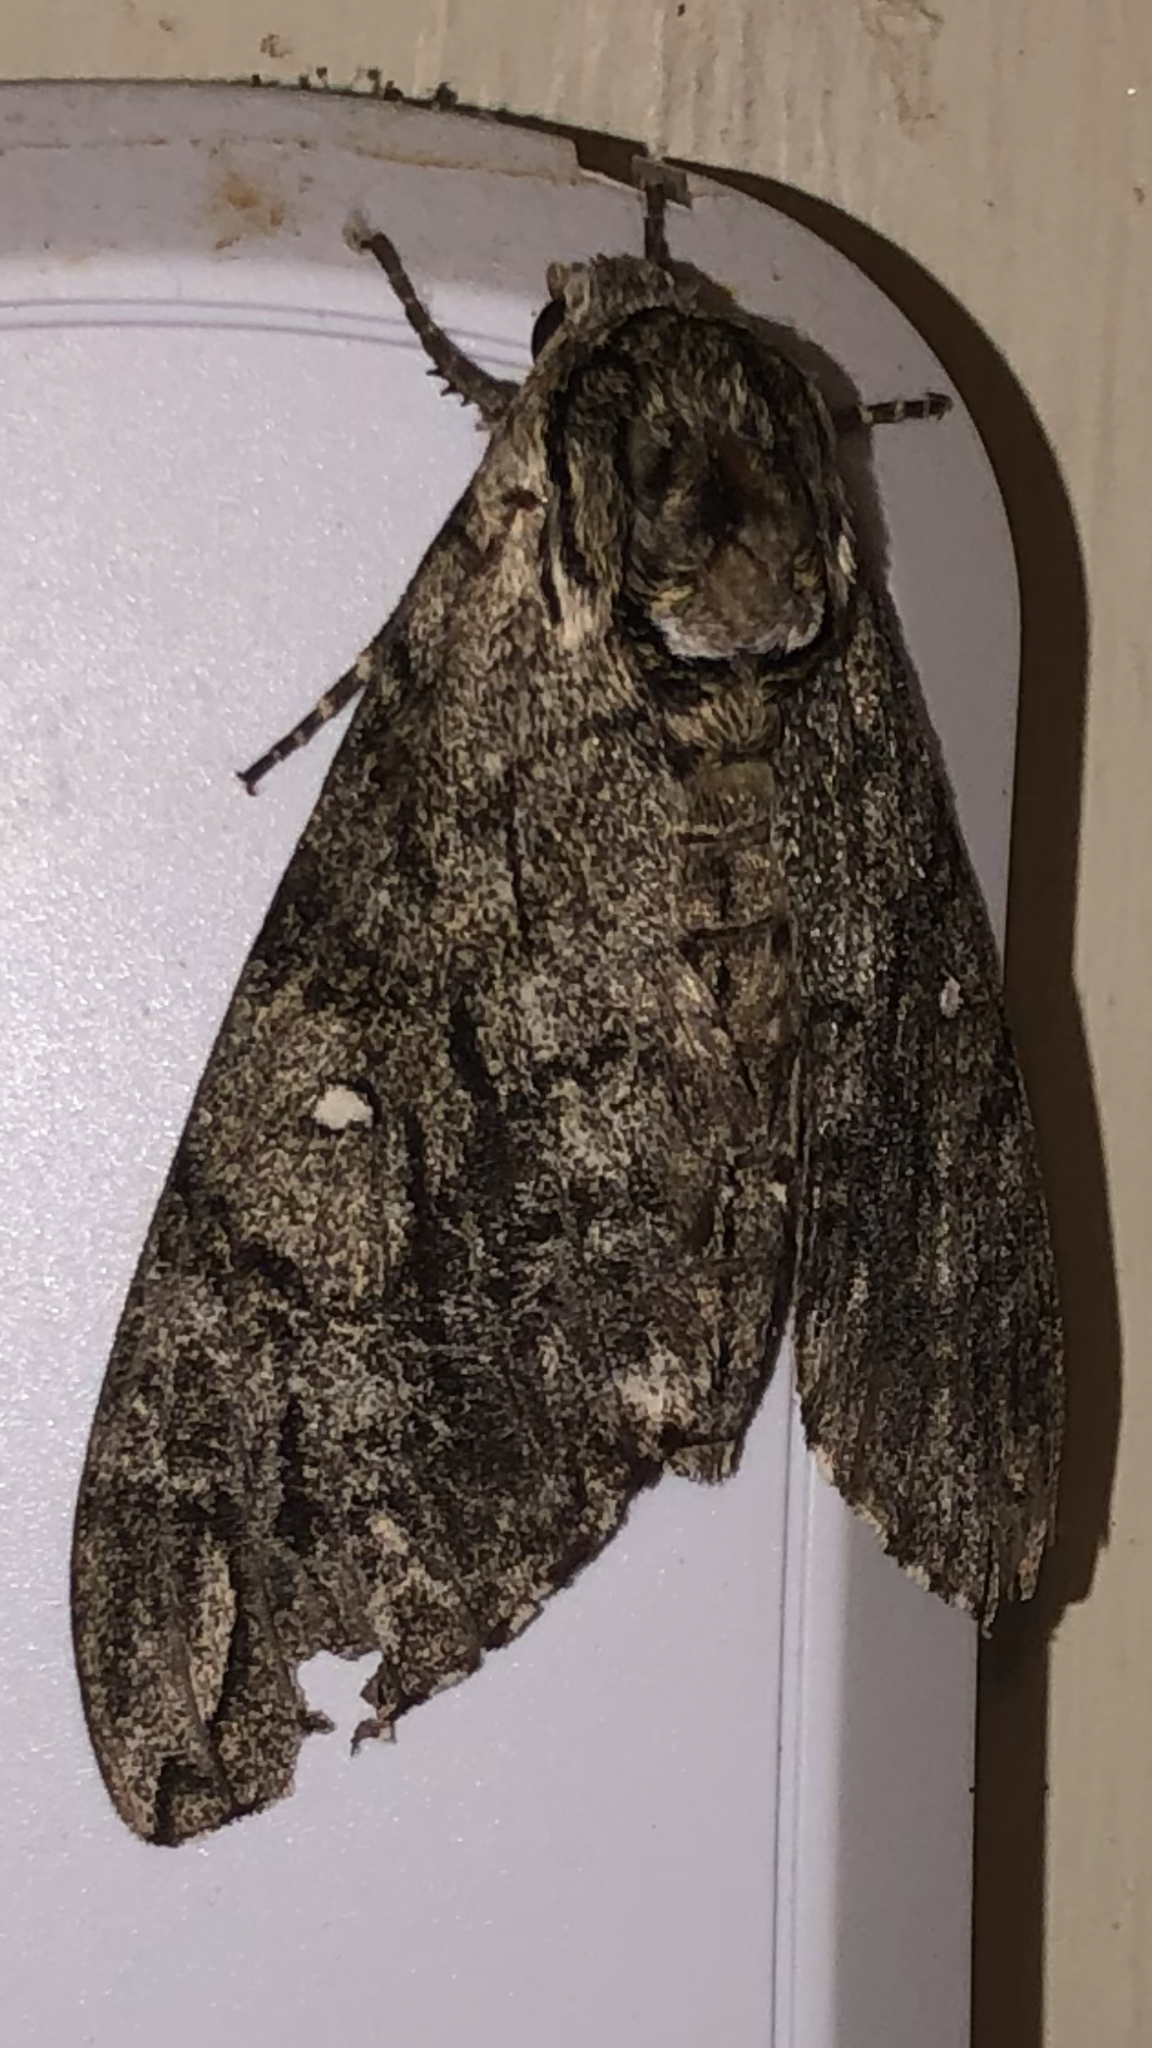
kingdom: Animalia
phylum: Arthropoda
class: Insecta
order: Lepidoptera
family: Sphingidae
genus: Ceratomia
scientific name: Ceratomia undulosa
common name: Waved sphinx
